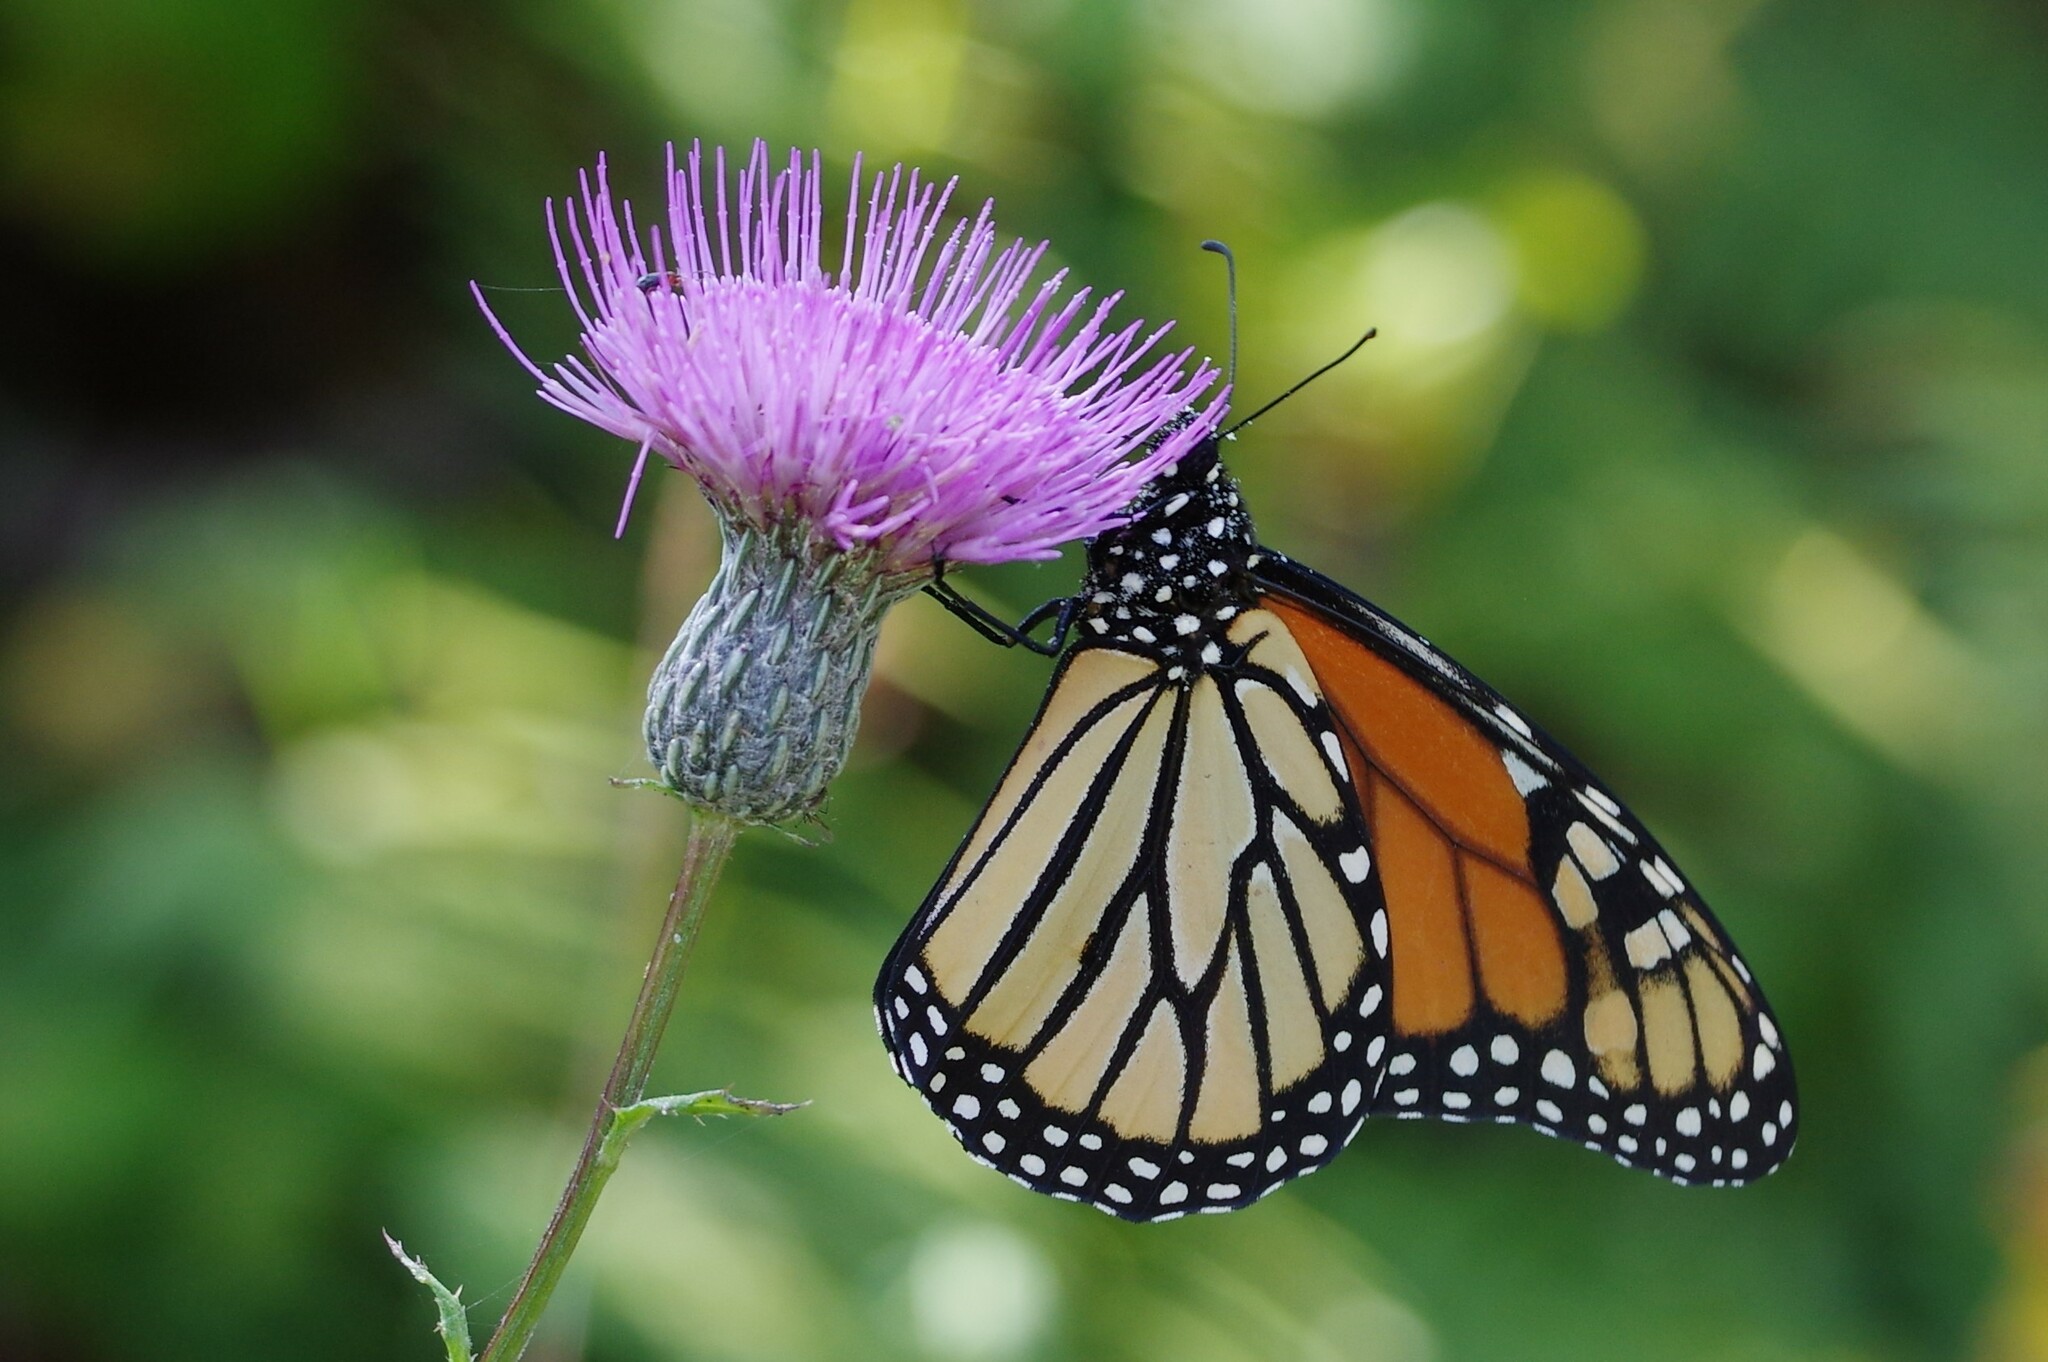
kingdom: Animalia
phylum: Arthropoda
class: Insecta
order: Lepidoptera
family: Nymphalidae
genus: Danaus
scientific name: Danaus plexippus
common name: Monarch
